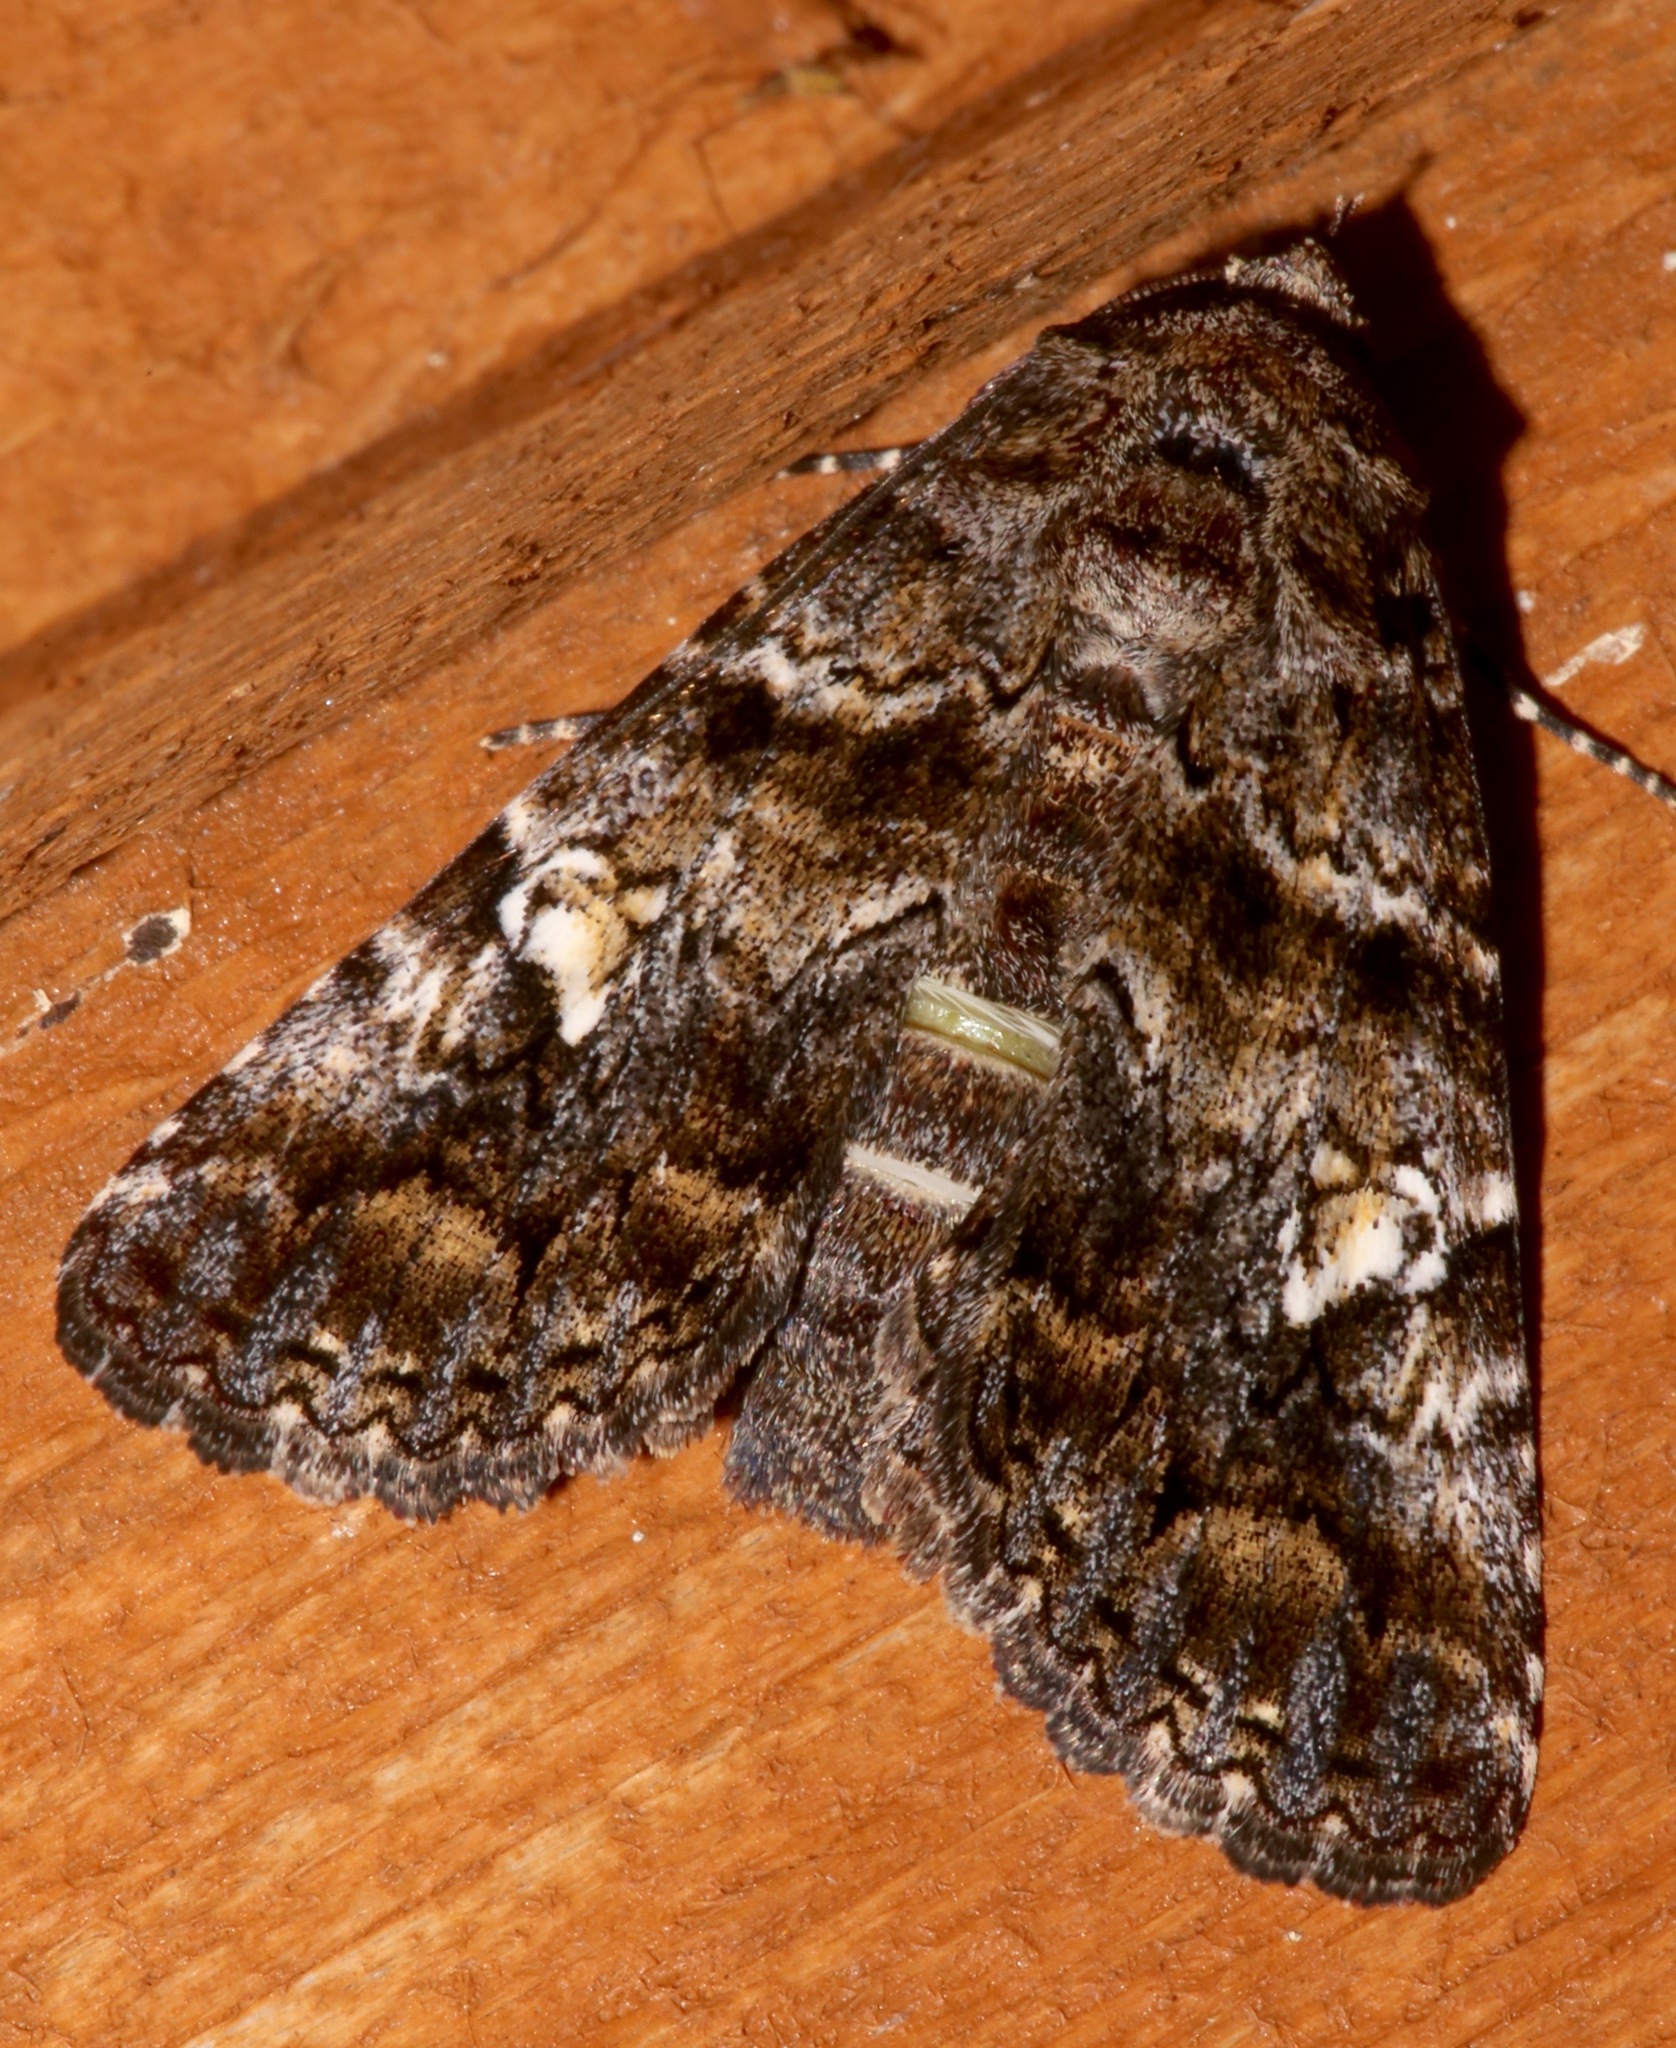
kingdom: Animalia
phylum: Arthropoda
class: Insecta
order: Lepidoptera
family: Erebidae
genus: Metria
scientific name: Metria amella
